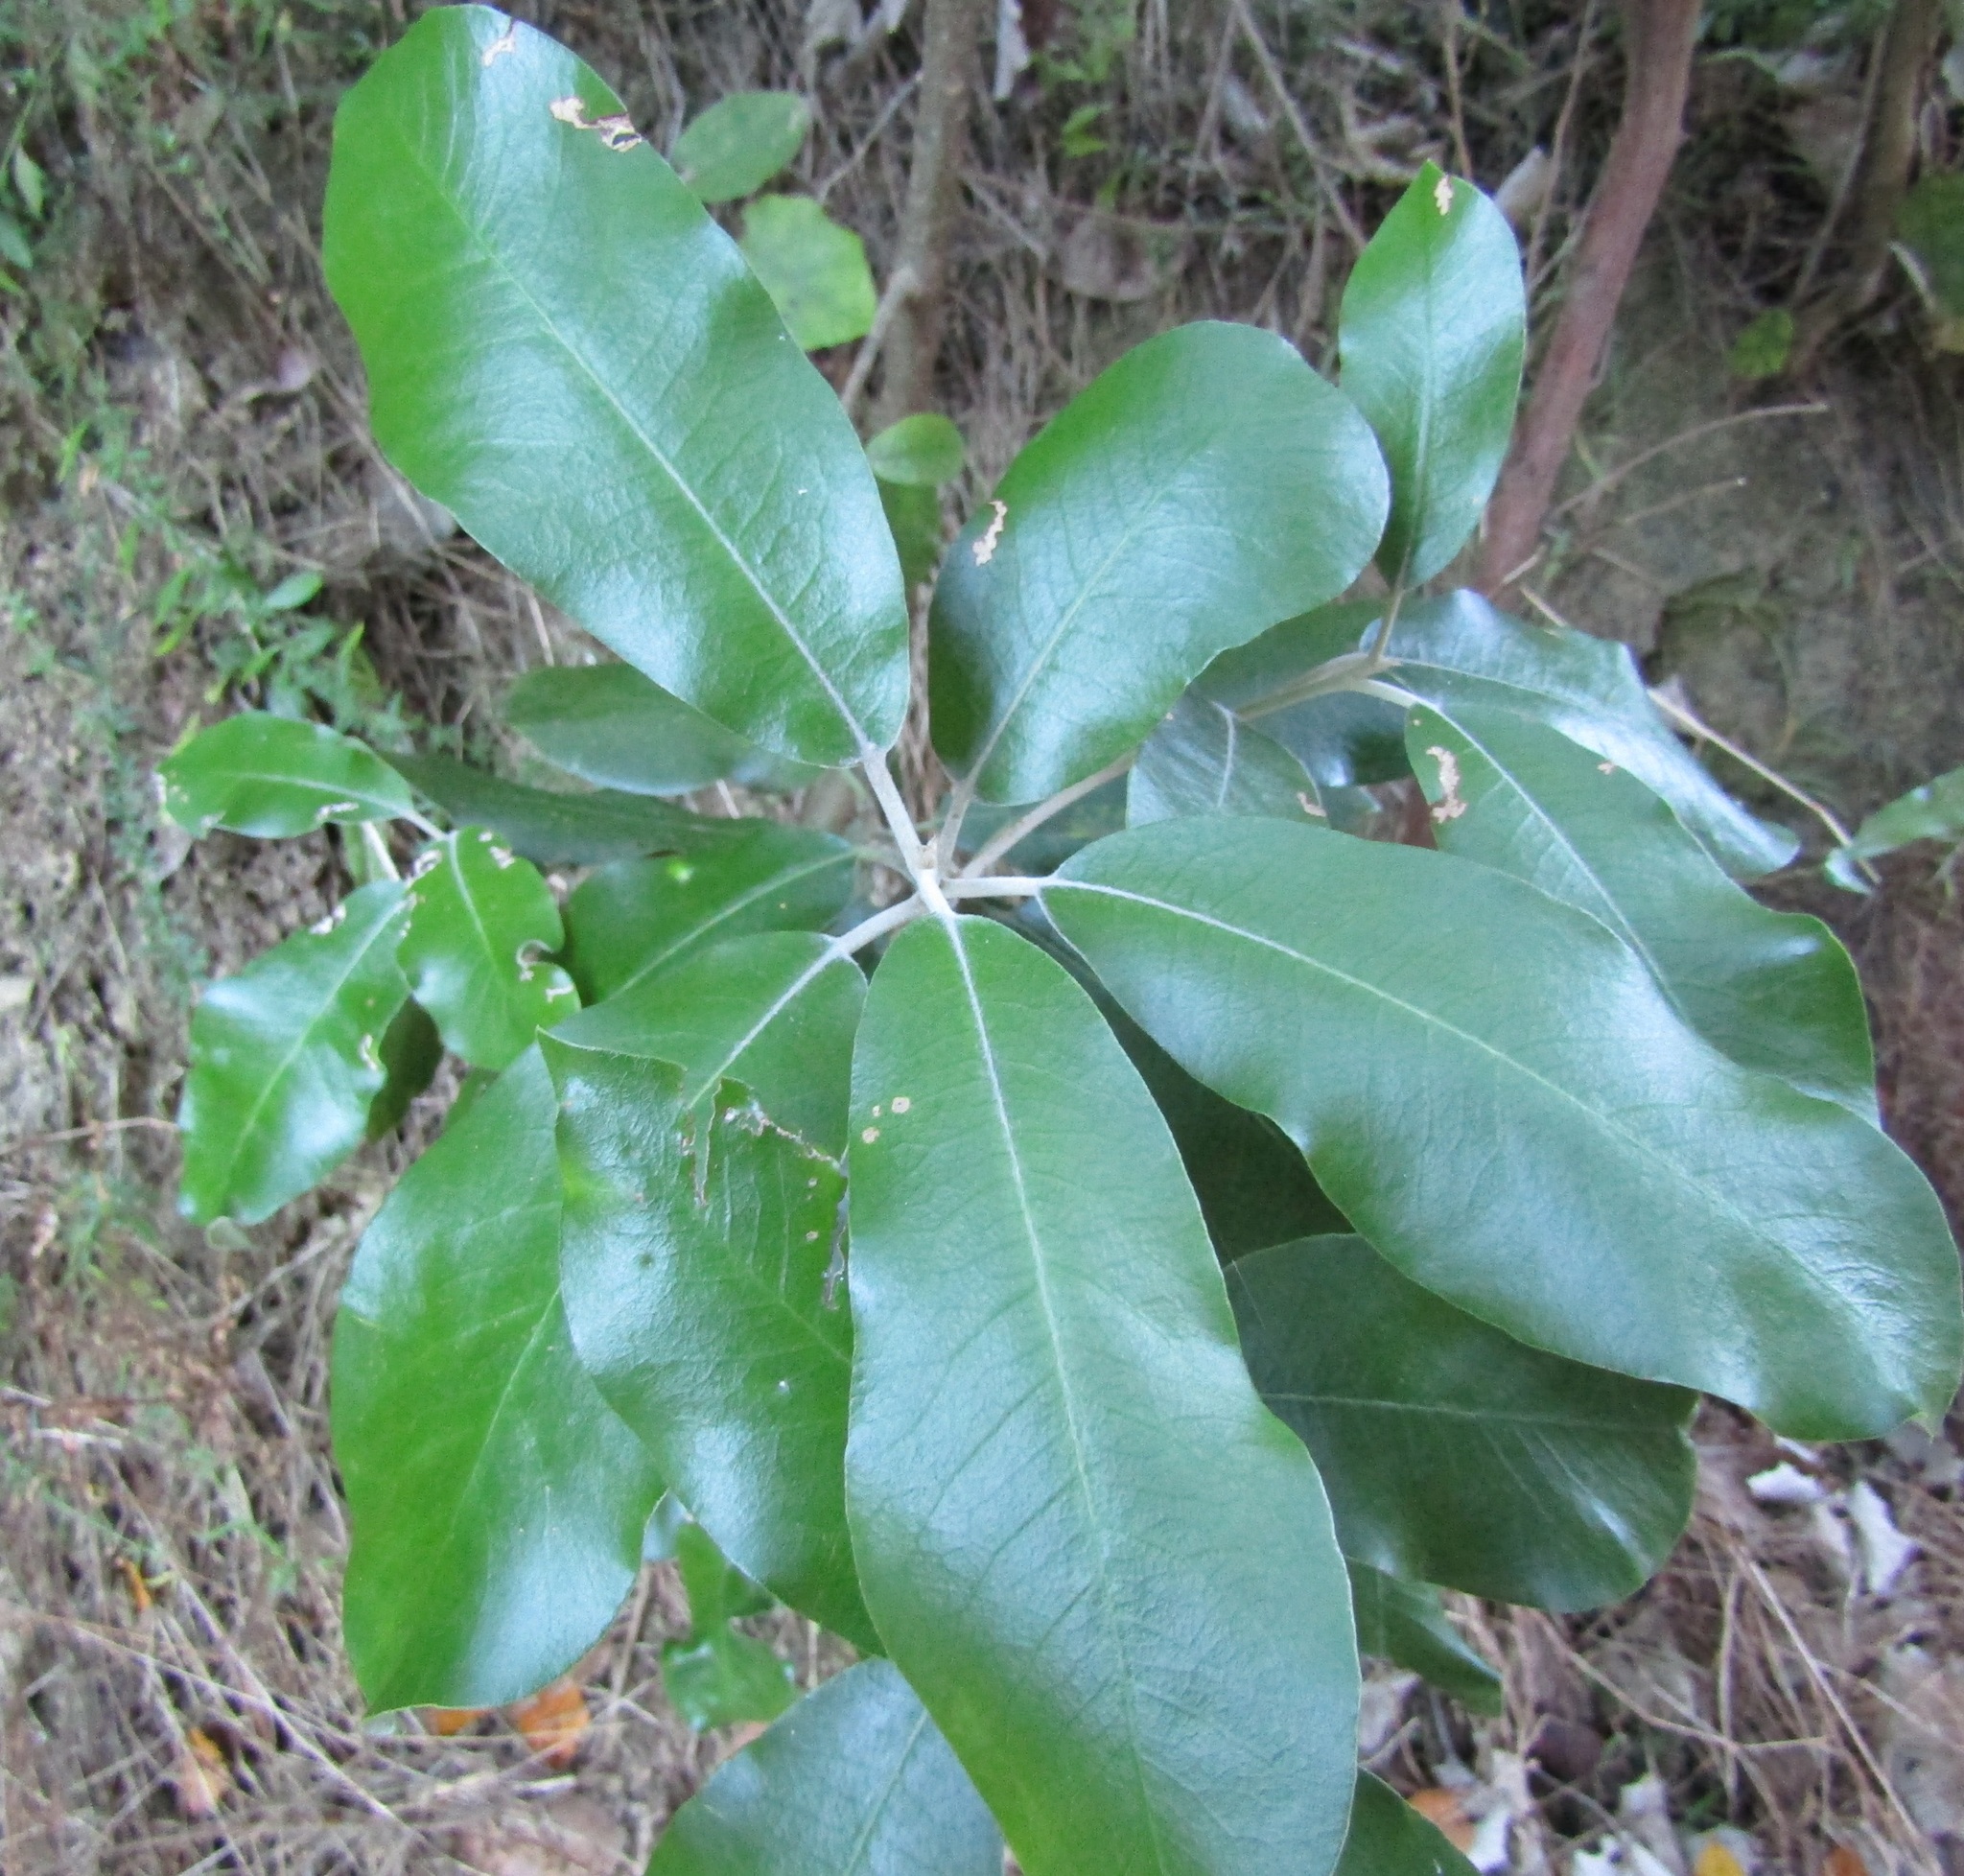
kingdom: Plantae
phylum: Tracheophyta
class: Magnoliopsida
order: Apiales
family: Pittosporaceae
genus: Pittosporum
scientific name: Pittosporum ralphii
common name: Ralph's desertwillow
